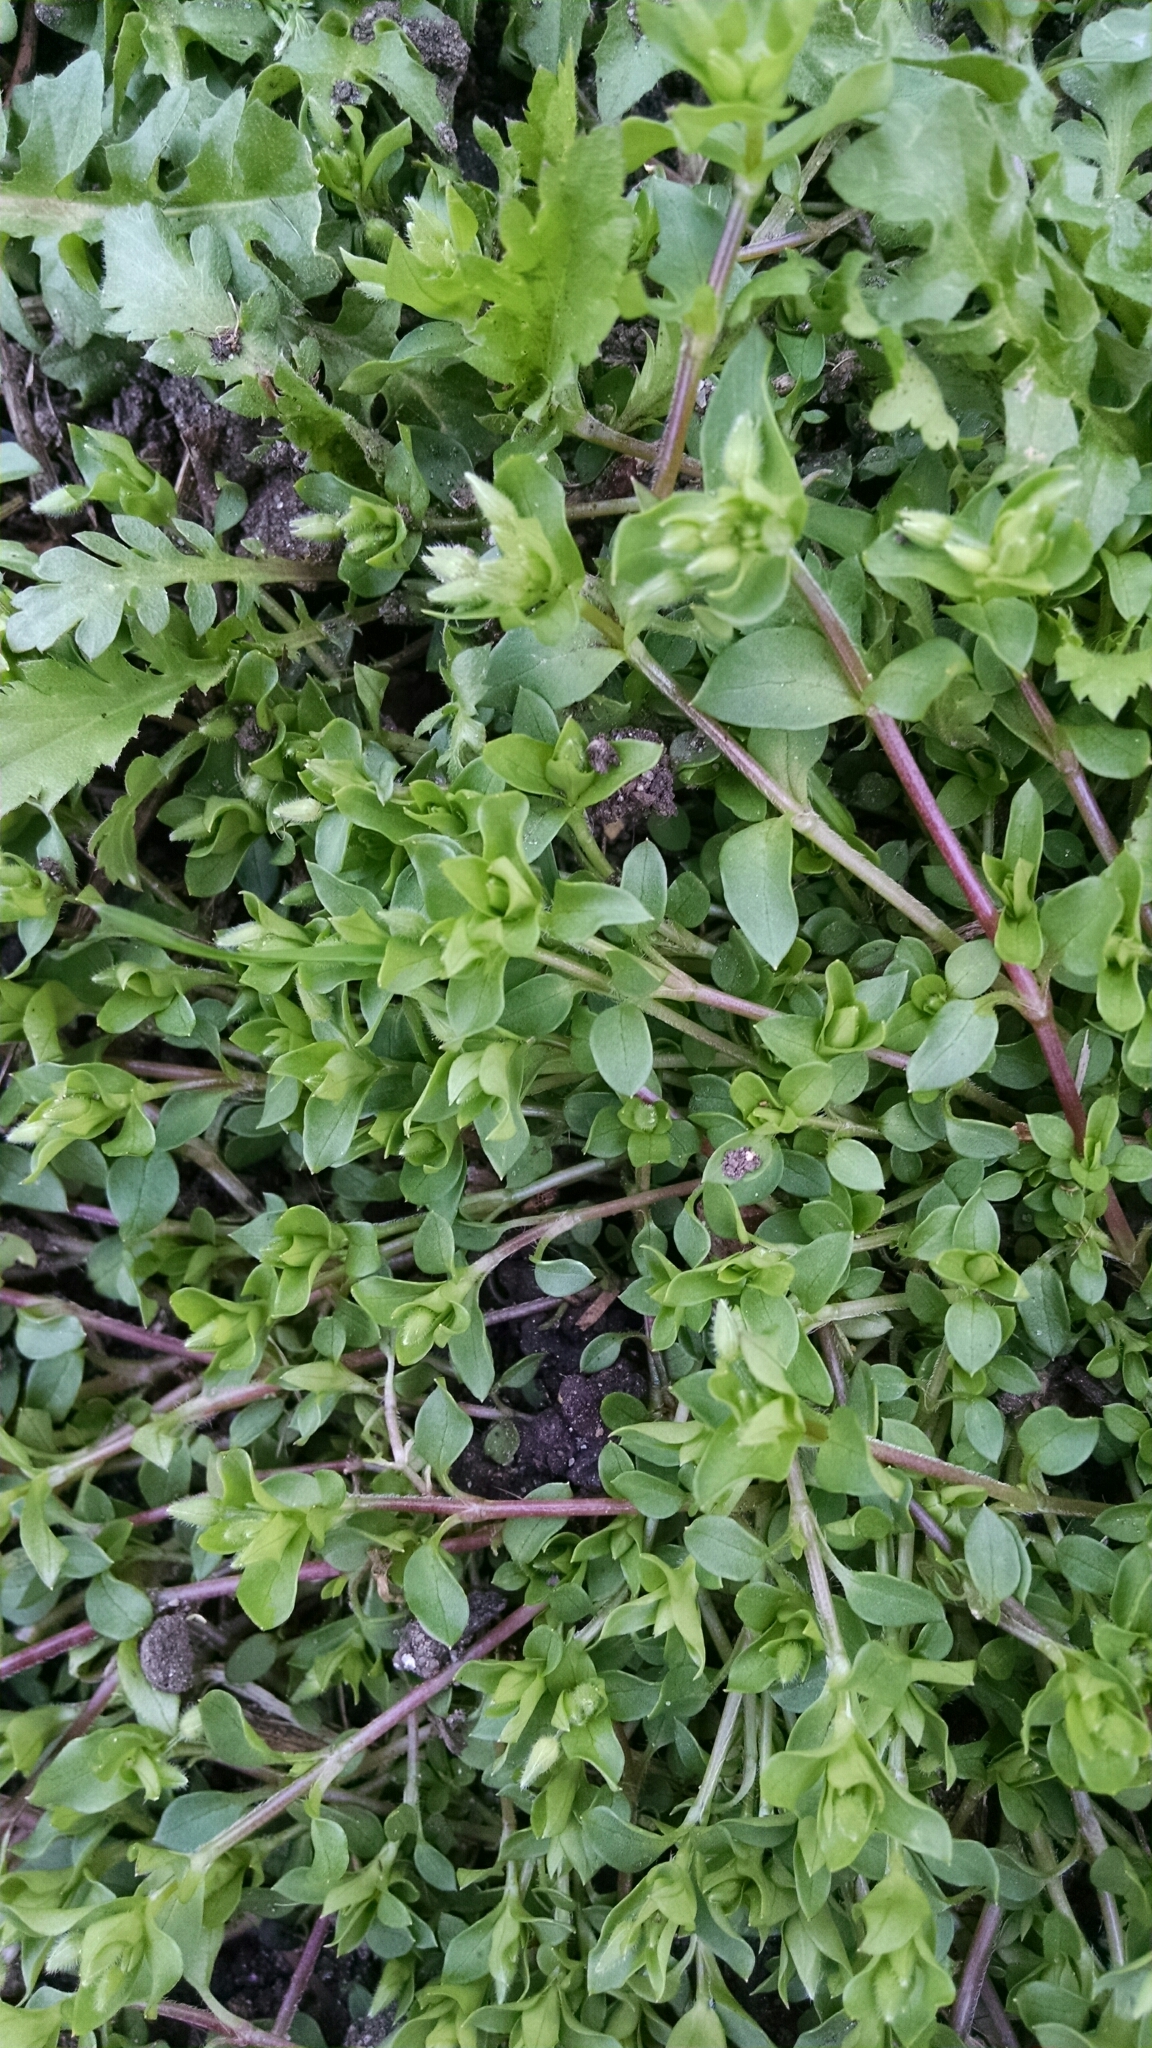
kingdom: Plantae
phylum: Tracheophyta
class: Magnoliopsida
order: Caryophyllales
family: Caryophyllaceae
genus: Stellaria
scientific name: Stellaria media
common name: Common chickweed
